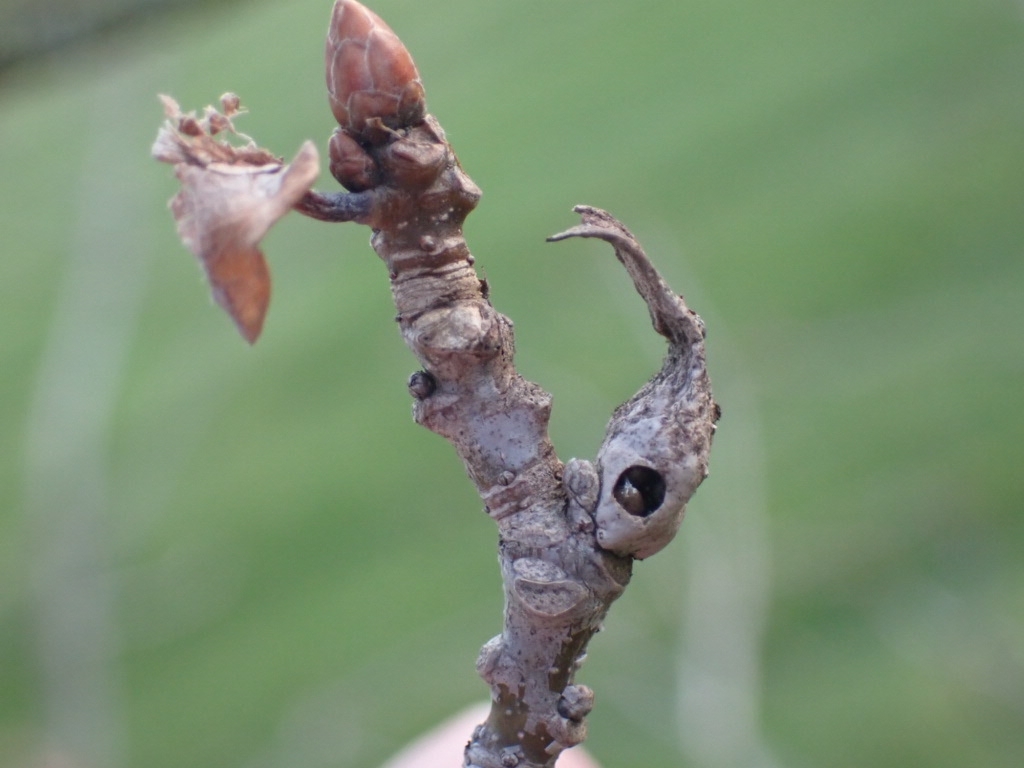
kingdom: Animalia
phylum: Arthropoda
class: Insecta
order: Hymenoptera
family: Cynipidae
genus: Andricus
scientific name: Andricus aries
